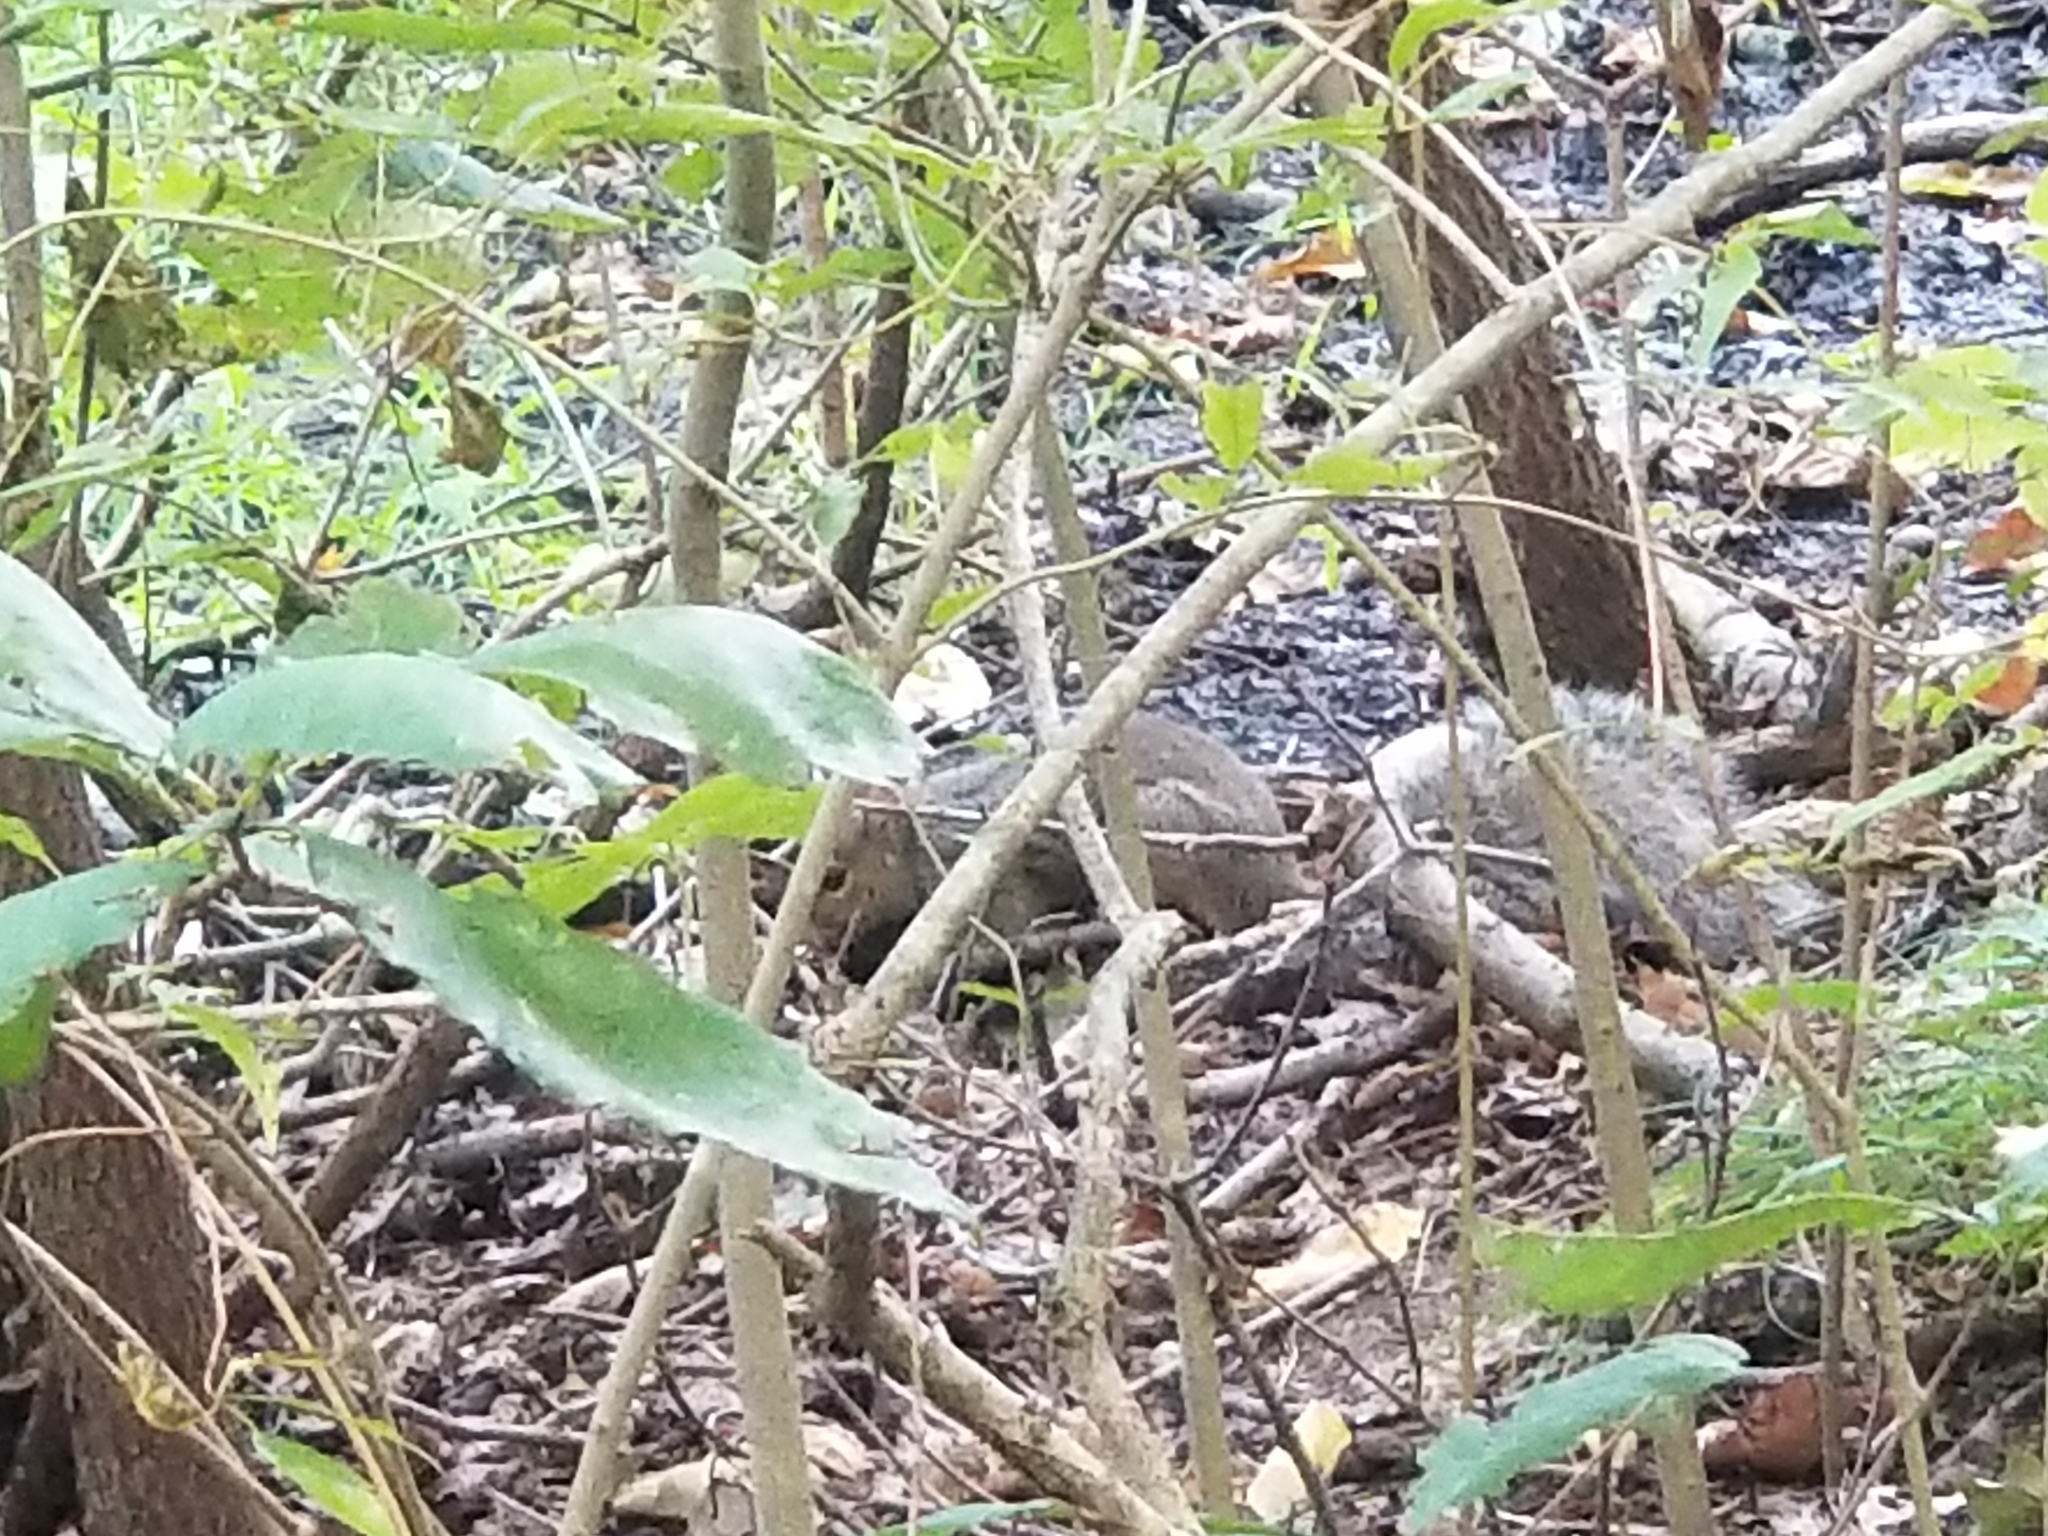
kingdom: Animalia
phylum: Chordata
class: Mammalia
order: Rodentia
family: Sciuridae
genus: Sciurus
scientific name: Sciurus carolinensis
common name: Eastern gray squirrel
